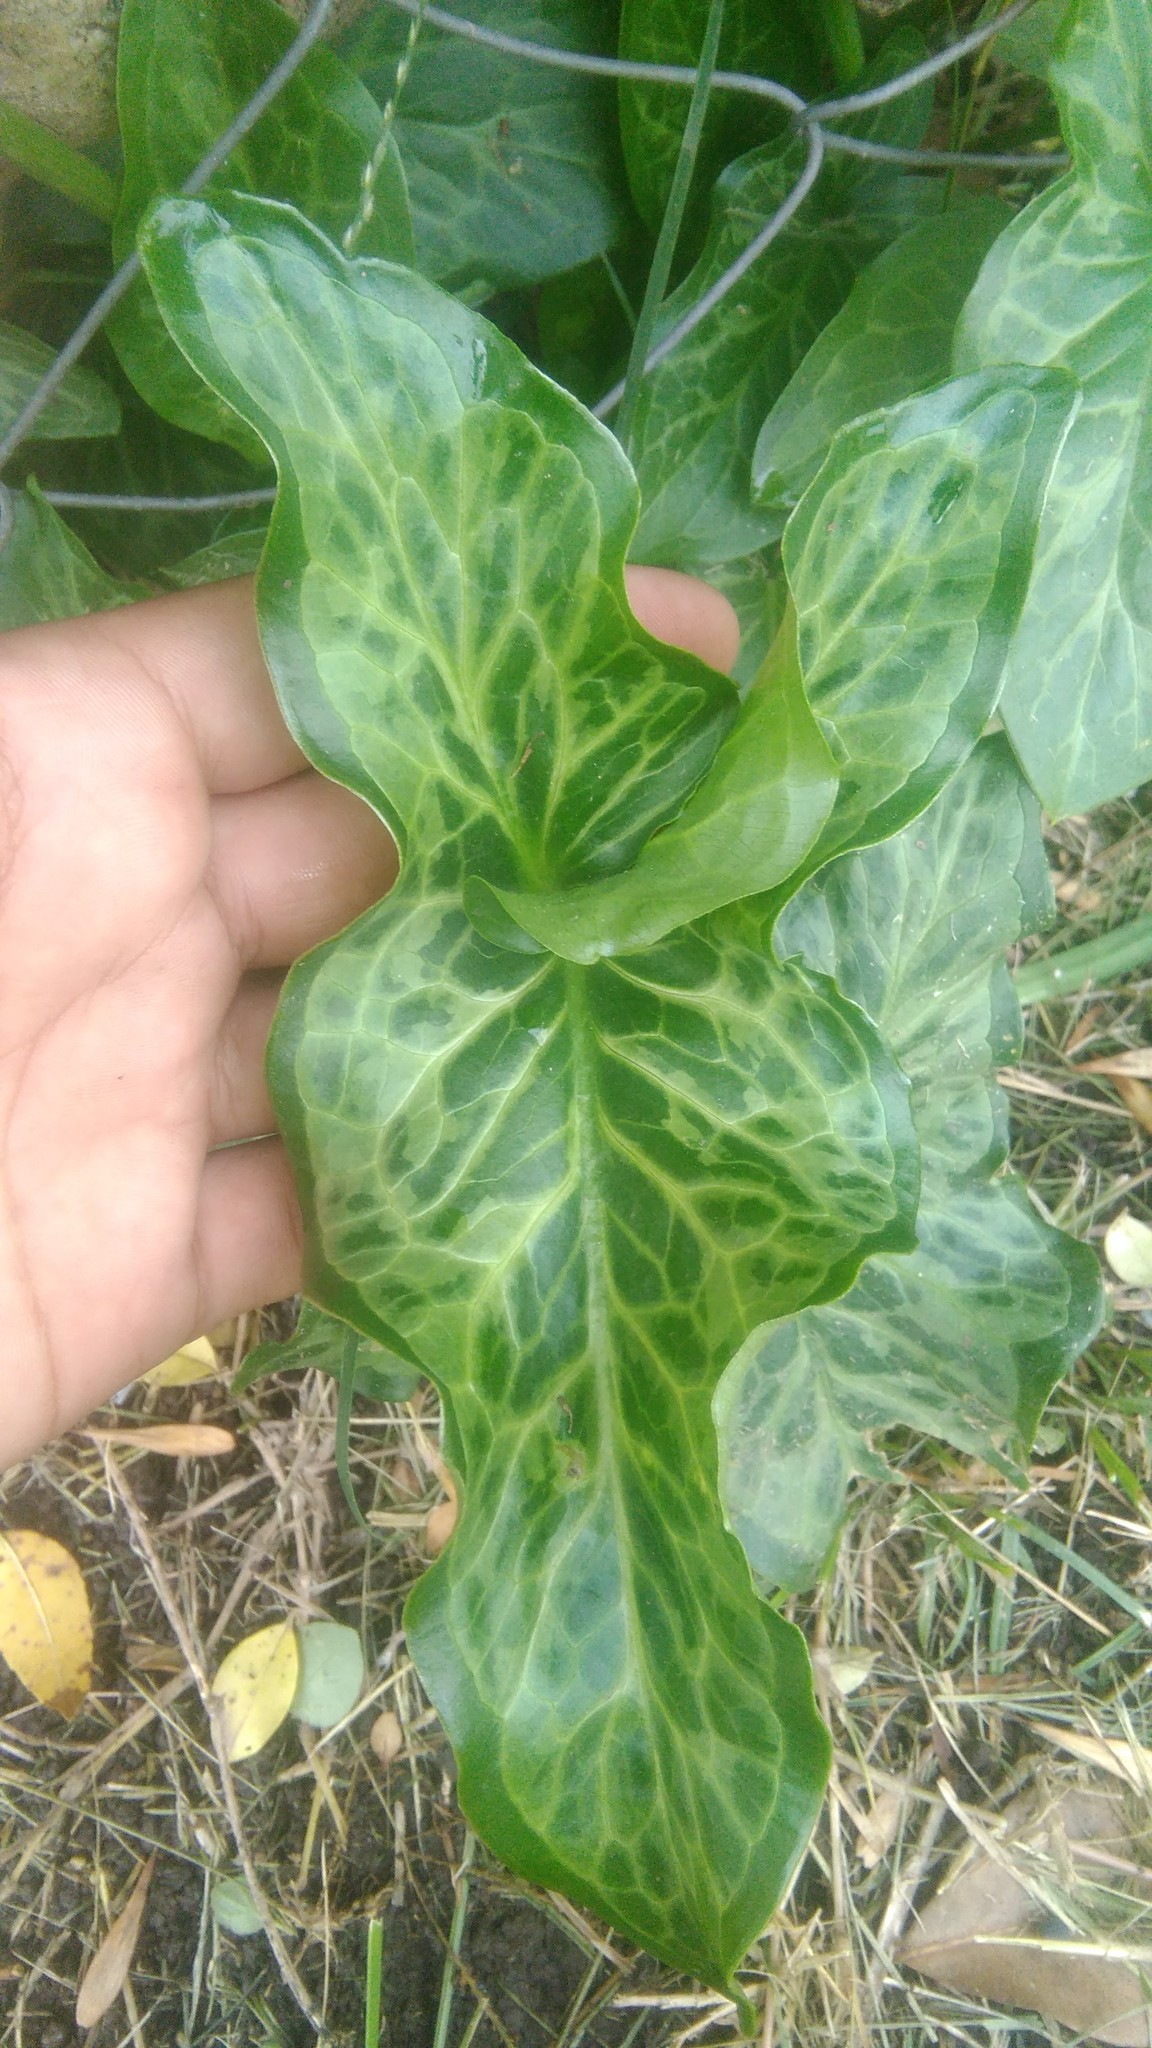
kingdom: Plantae
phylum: Tracheophyta
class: Liliopsida
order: Alismatales
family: Araceae
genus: Arum
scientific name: Arum italicum
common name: Italian lords-and-ladies
